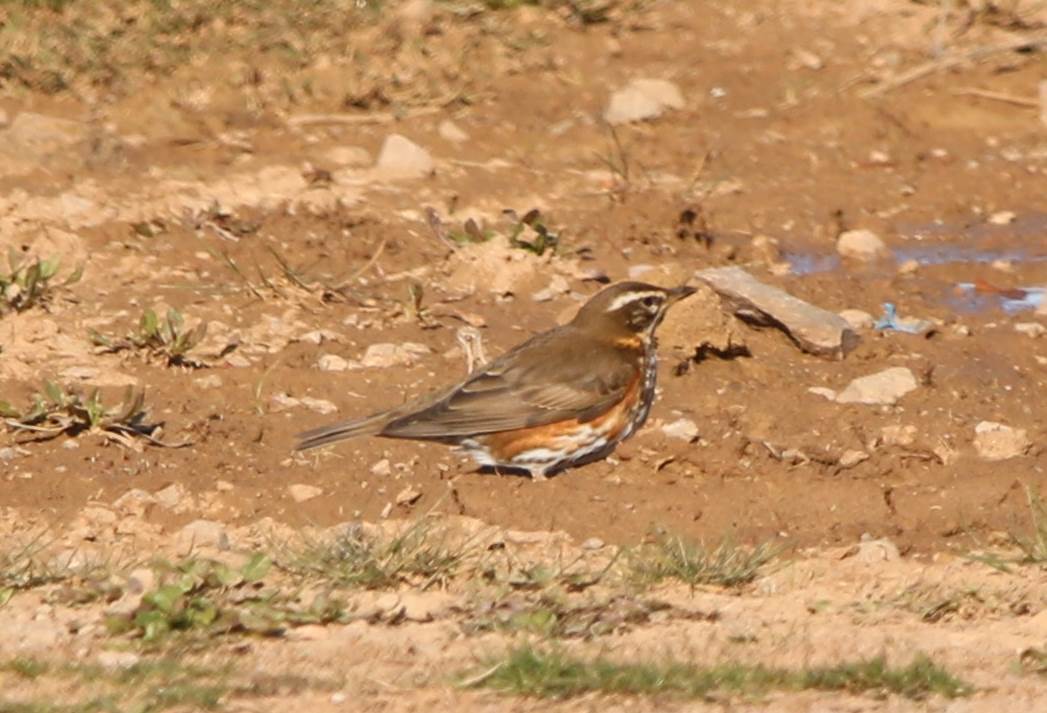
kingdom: Animalia
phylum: Chordata
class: Aves
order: Passeriformes
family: Turdidae
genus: Turdus
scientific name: Turdus iliacus
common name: Redwing
